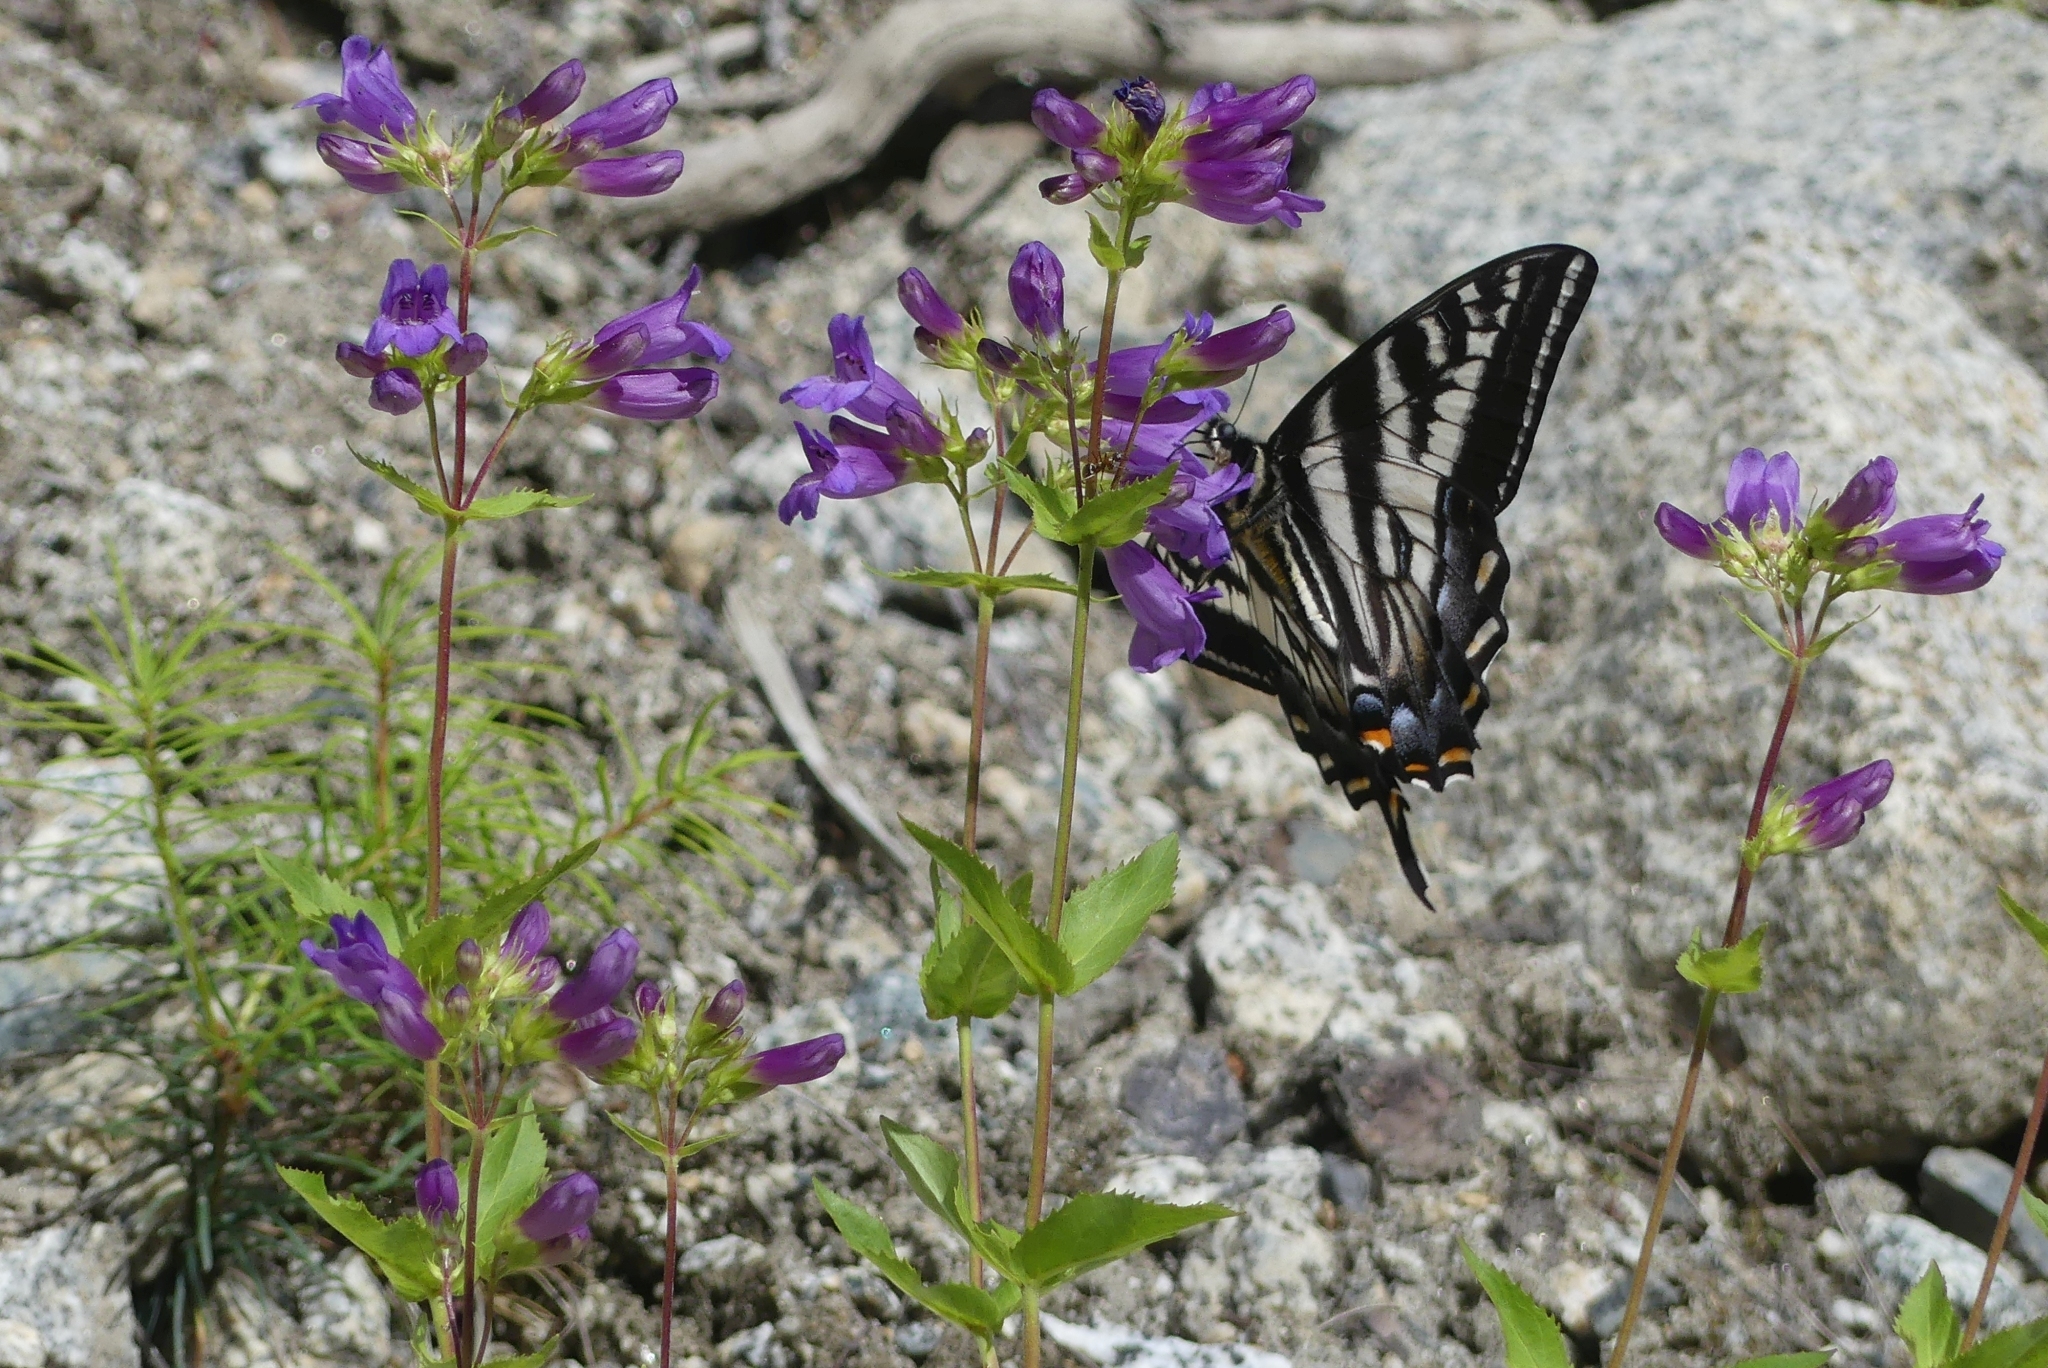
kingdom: Animalia
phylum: Arthropoda
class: Insecta
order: Lepidoptera
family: Papilionidae
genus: Papilio
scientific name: Papilio eurymedon
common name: Pale tiger swallowtail
